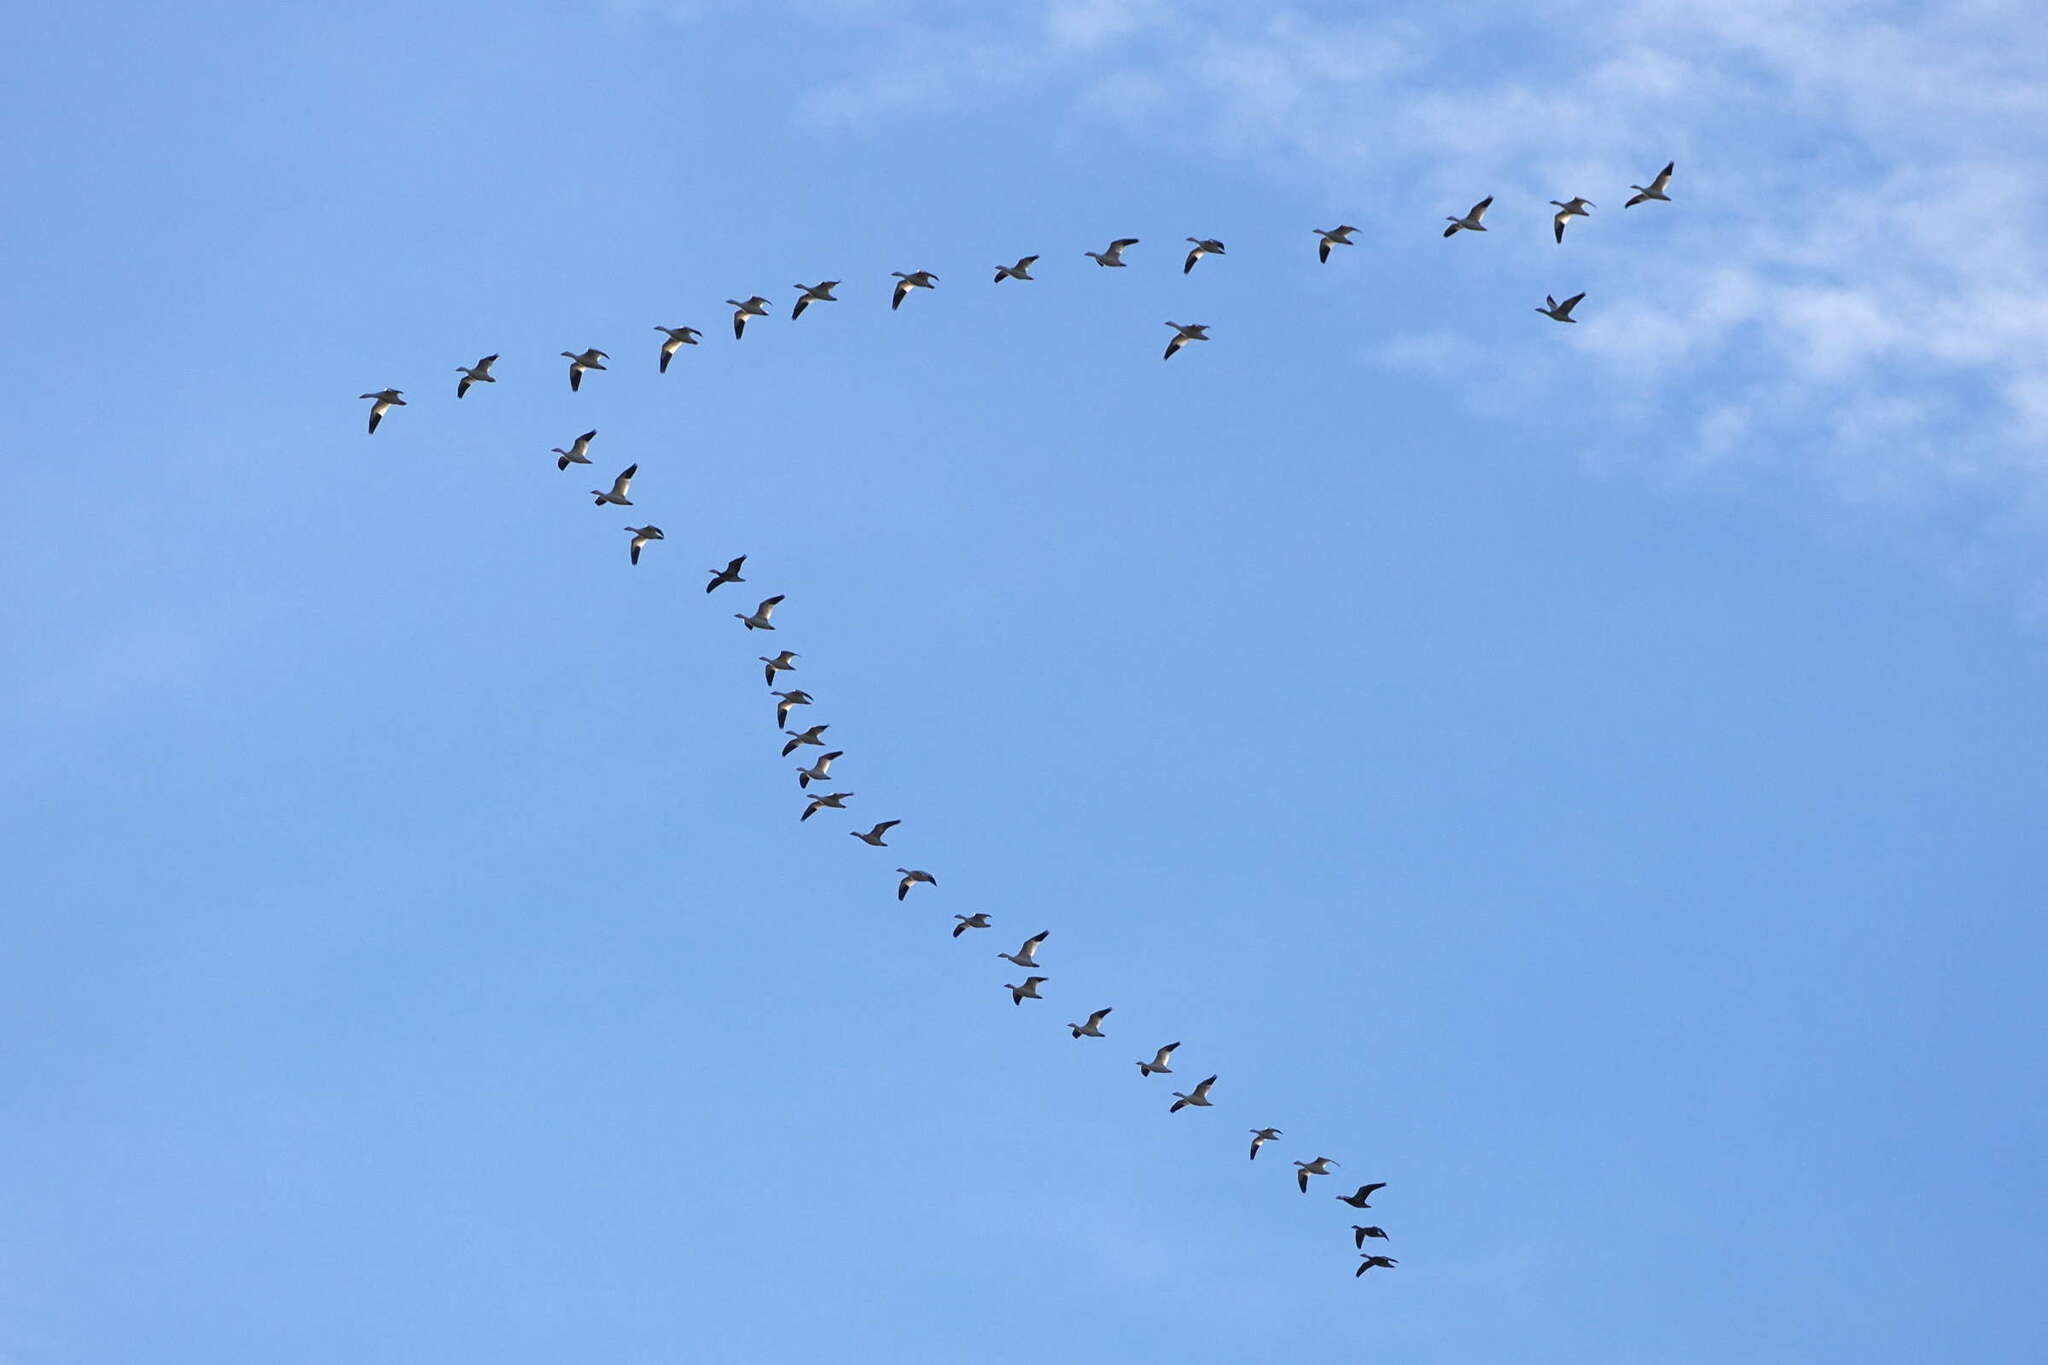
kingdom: Animalia
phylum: Chordata
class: Aves
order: Anseriformes
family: Anatidae
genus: Anser
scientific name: Anser caerulescens
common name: Snow goose
